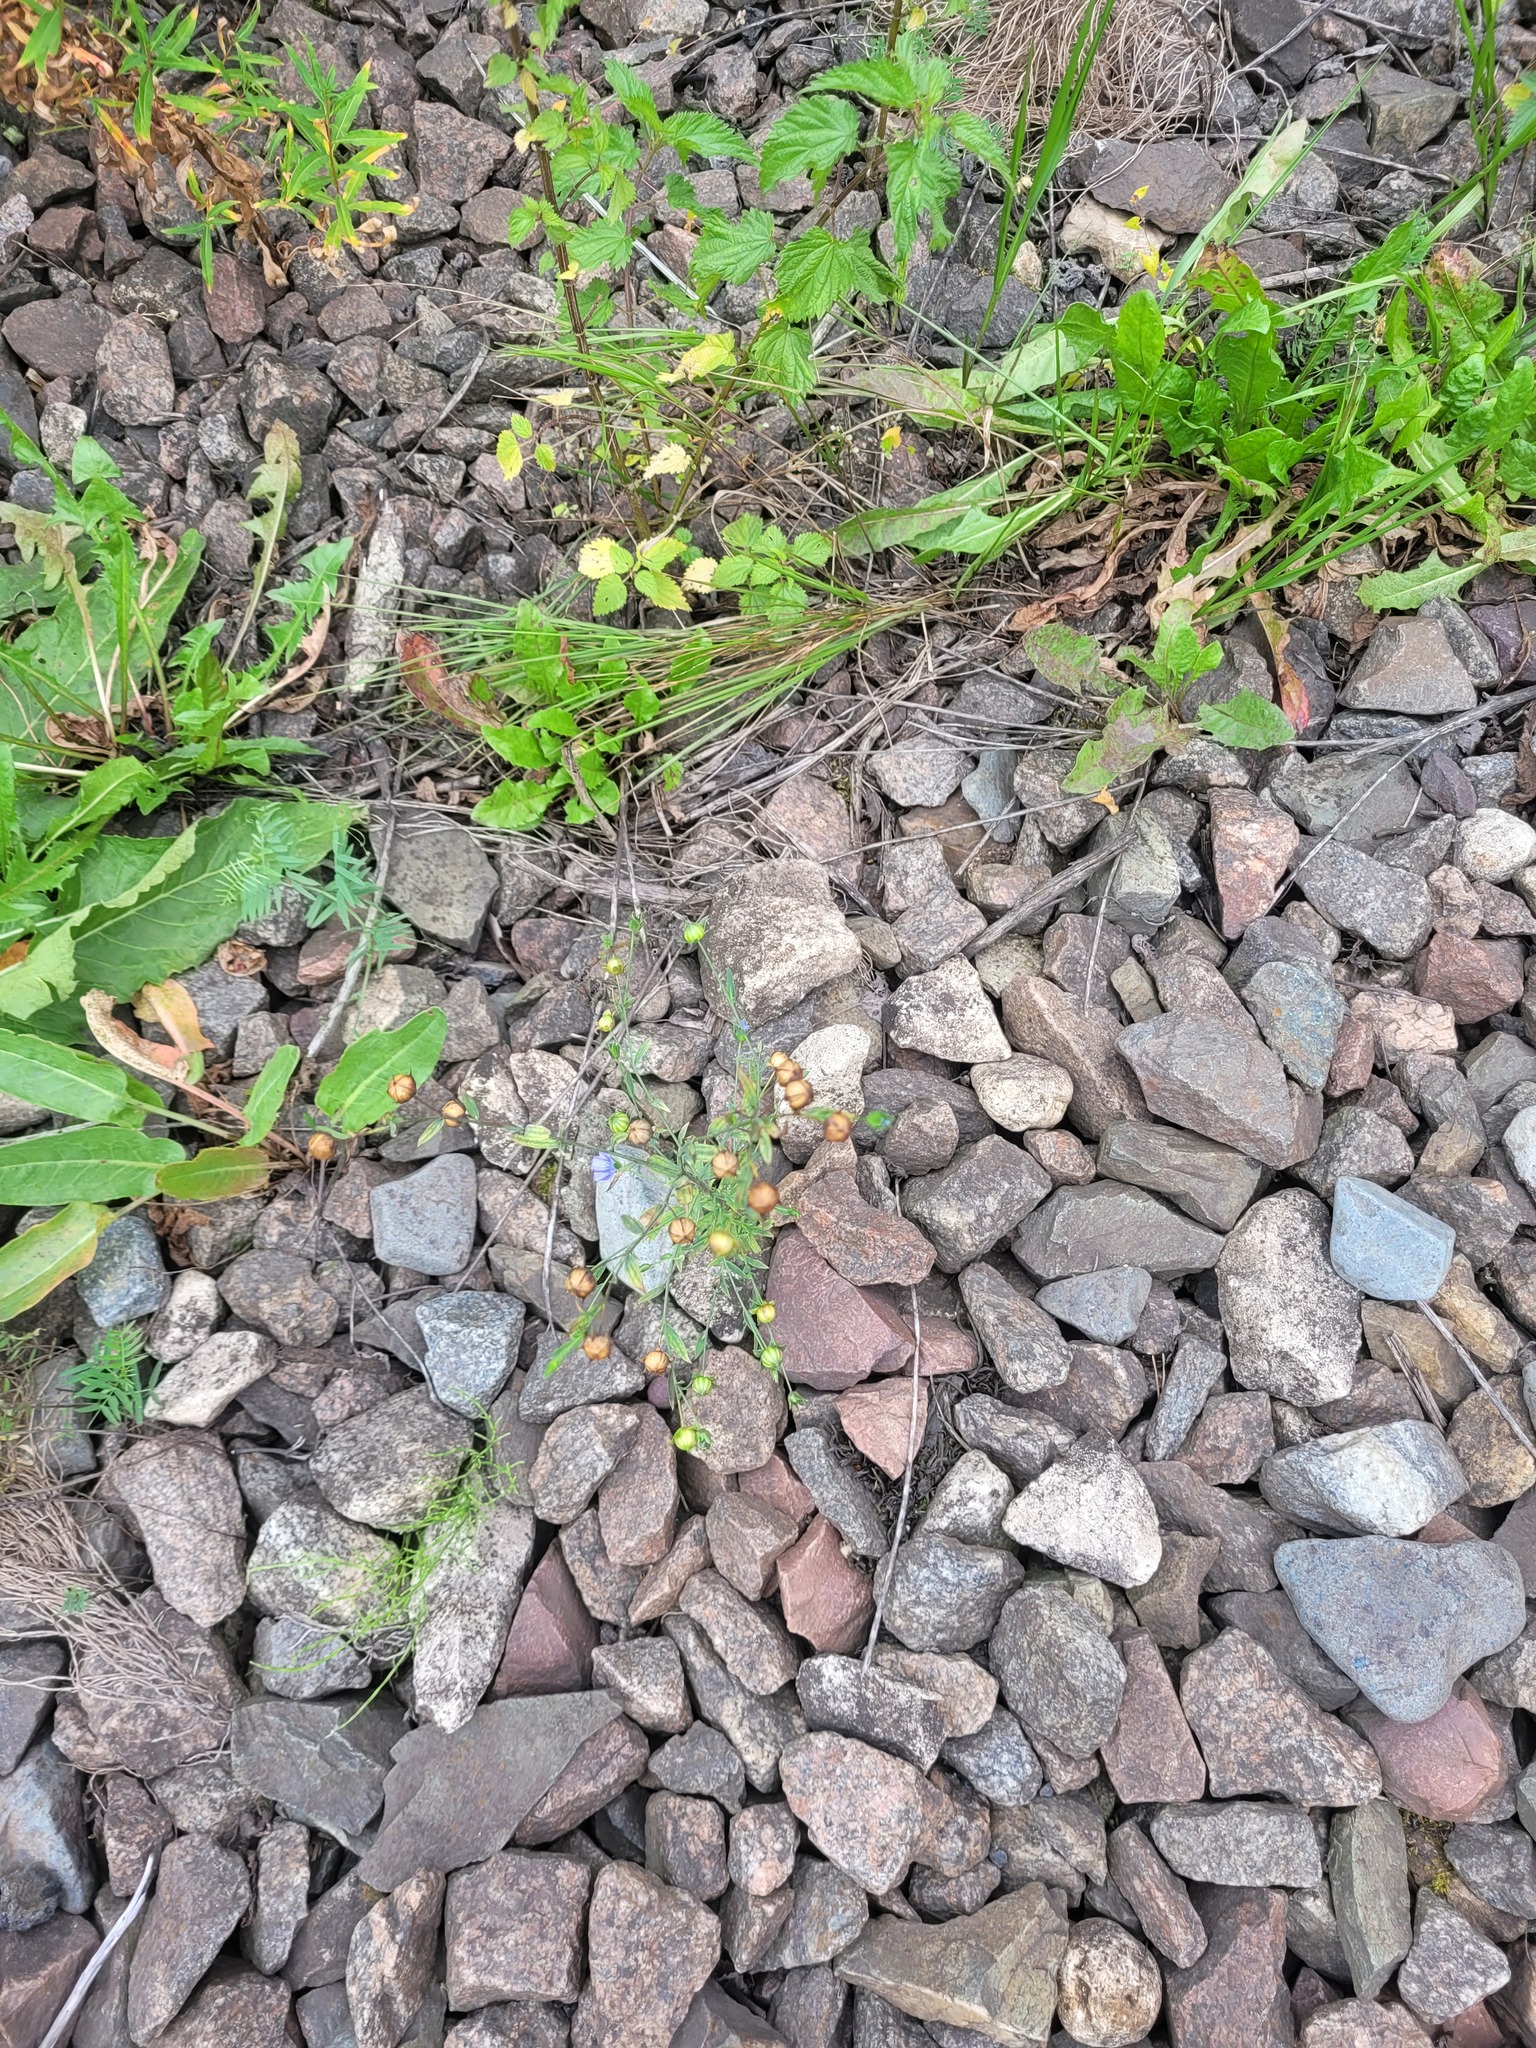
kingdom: Plantae
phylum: Tracheophyta
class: Magnoliopsida
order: Malpighiales
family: Linaceae
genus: Linum
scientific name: Linum usitatissimum
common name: Flax
